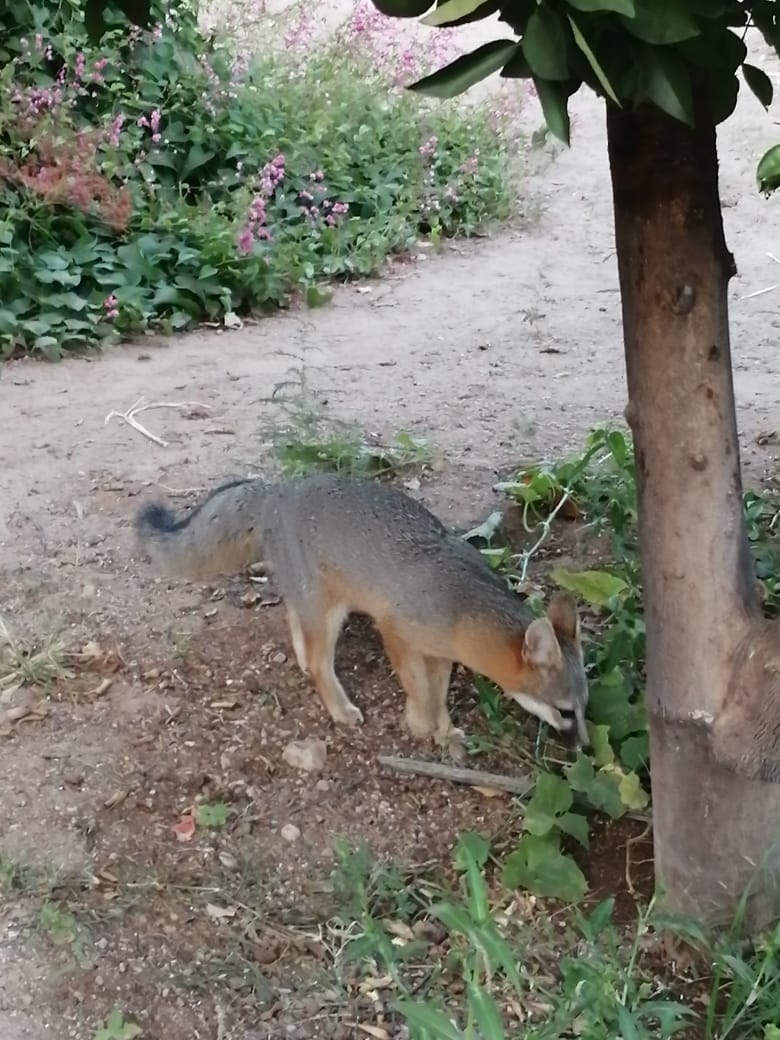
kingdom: Animalia
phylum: Chordata
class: Mammalia
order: Carnivora
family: Canidae
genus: Urocyon
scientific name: Urocyon cinereoargenteus
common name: Gray fox
